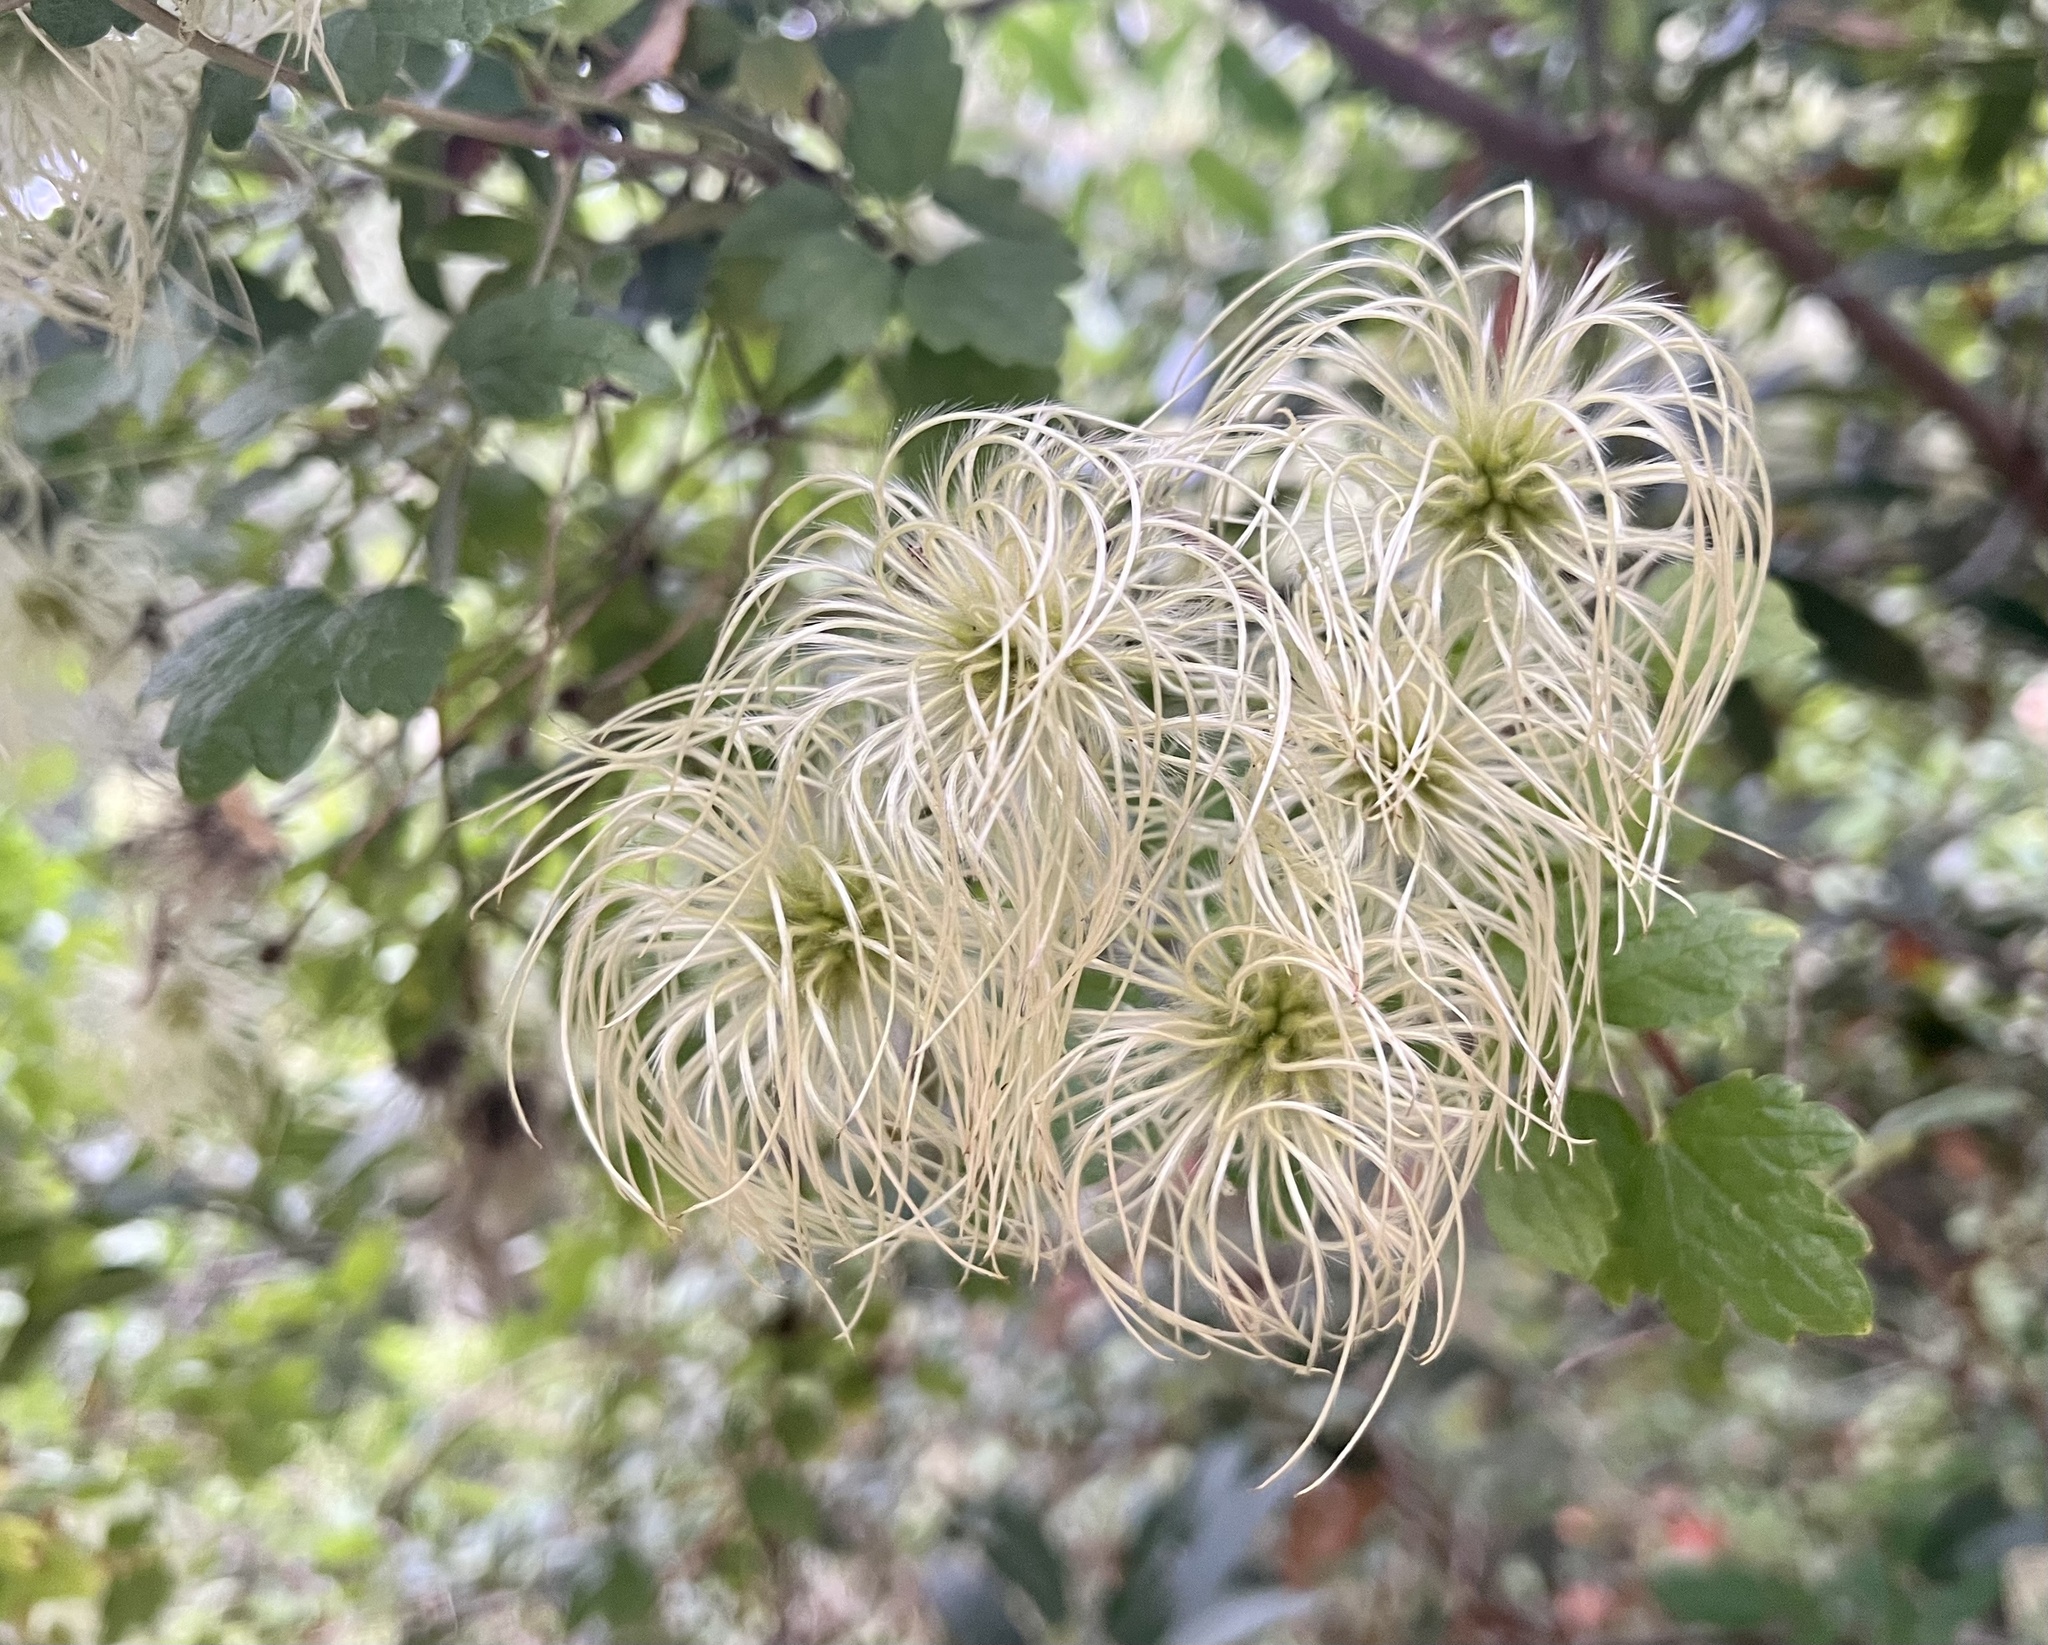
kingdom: Plantae
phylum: Tracheophyta
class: Magnoliopsida
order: Ranunculales
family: Ranunculaceae
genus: Clematis
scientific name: Clematis lasiantha
